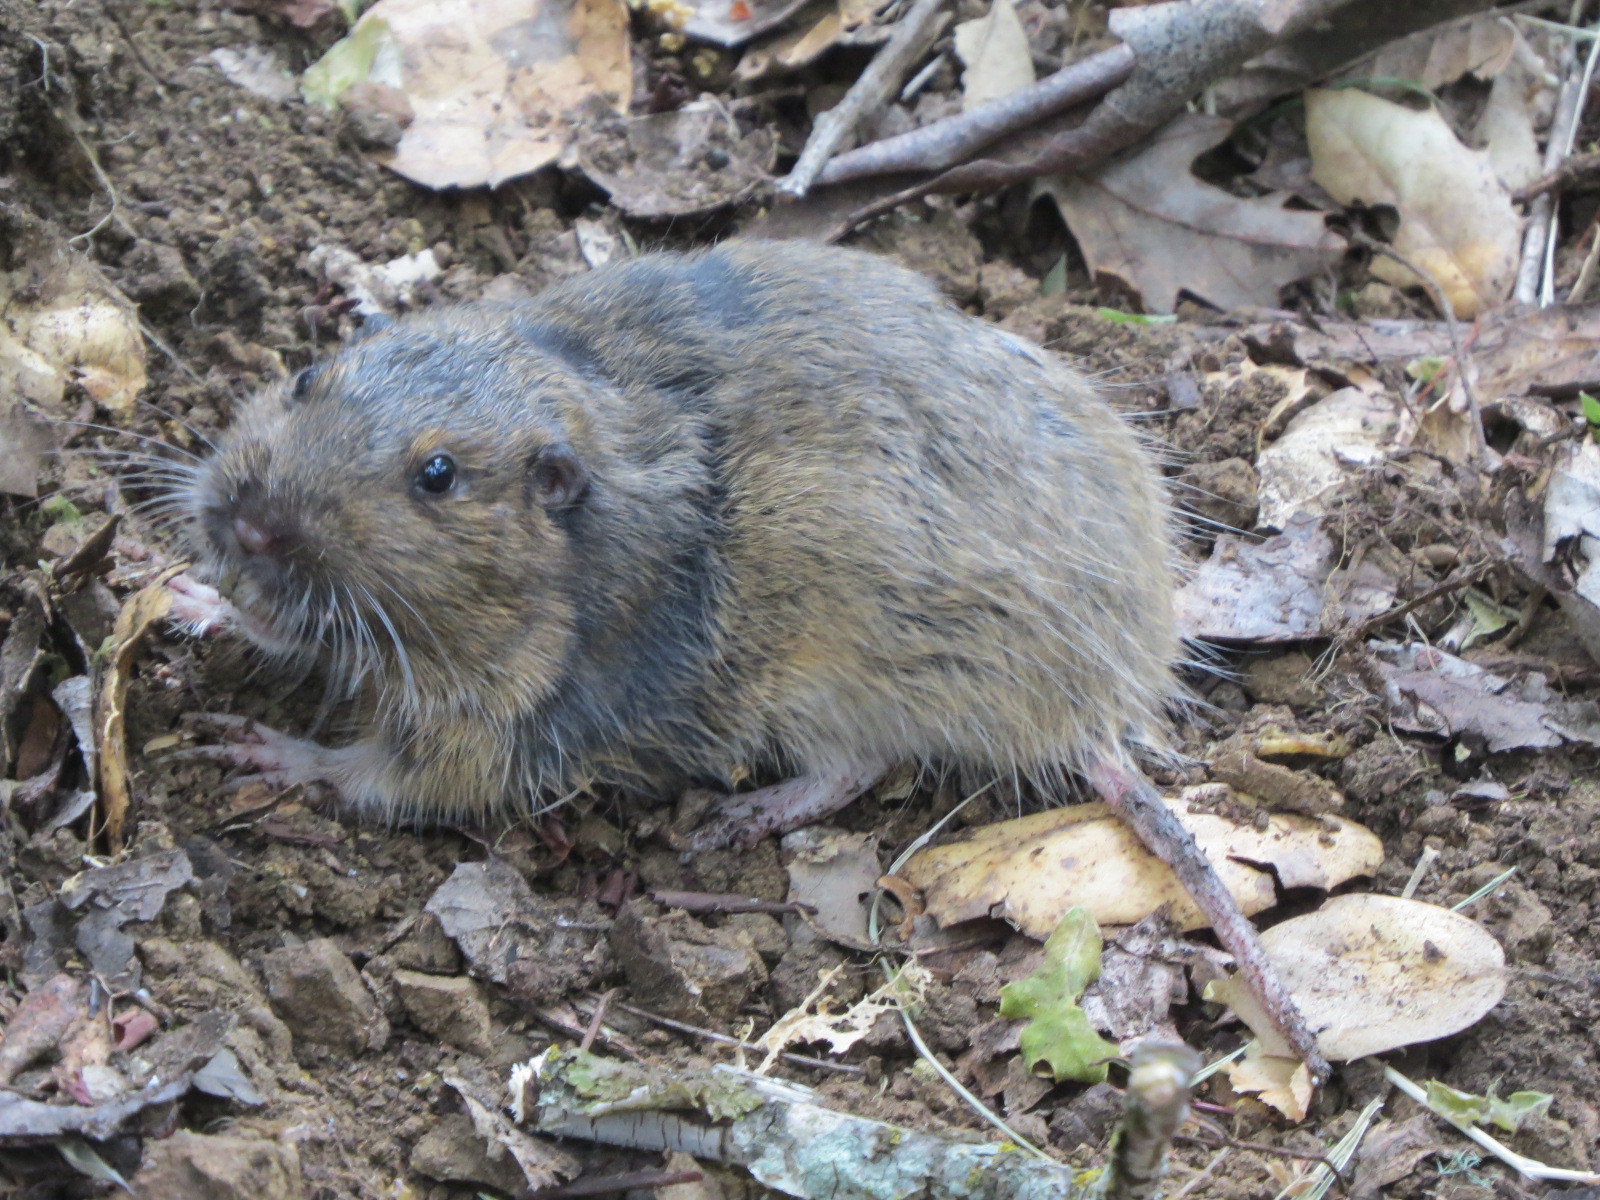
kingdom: Animalia
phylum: Chordata
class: Mammalia
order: Rodentia
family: Geomyidae
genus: Thomomys
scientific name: Thomomys bottae
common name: Botta's pocket gopher
